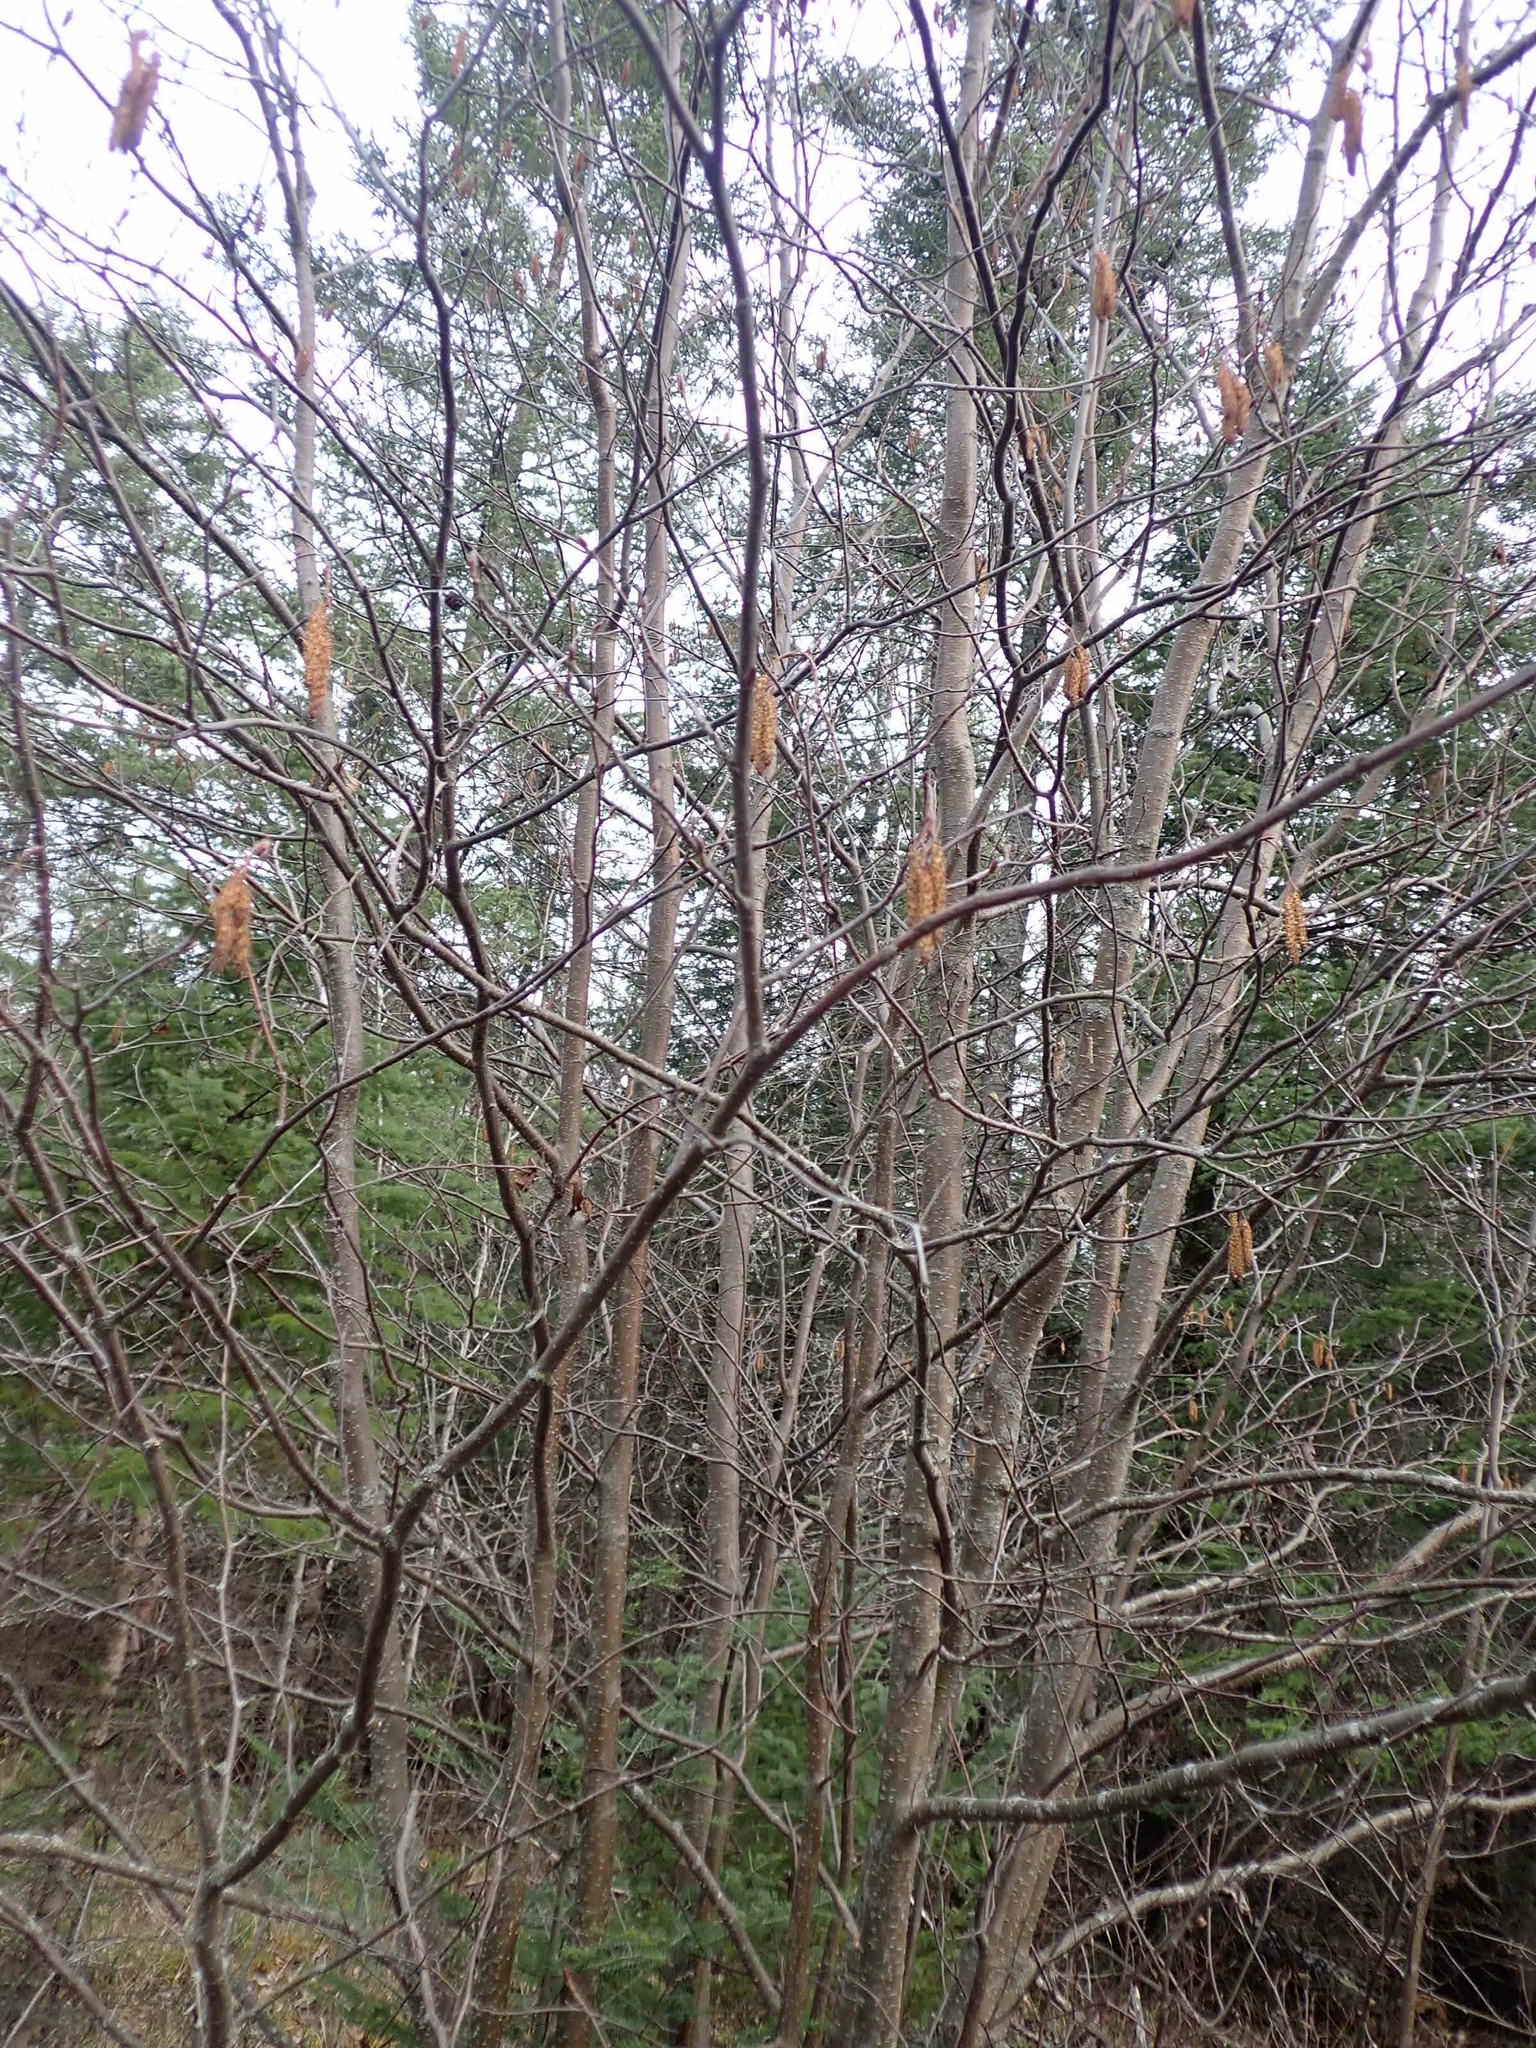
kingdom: Plantae
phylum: Tracheophyta
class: Magnoliopsida
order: Fagales
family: Betulaceae
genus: Alnus
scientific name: Alnus incana
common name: Grey alder
